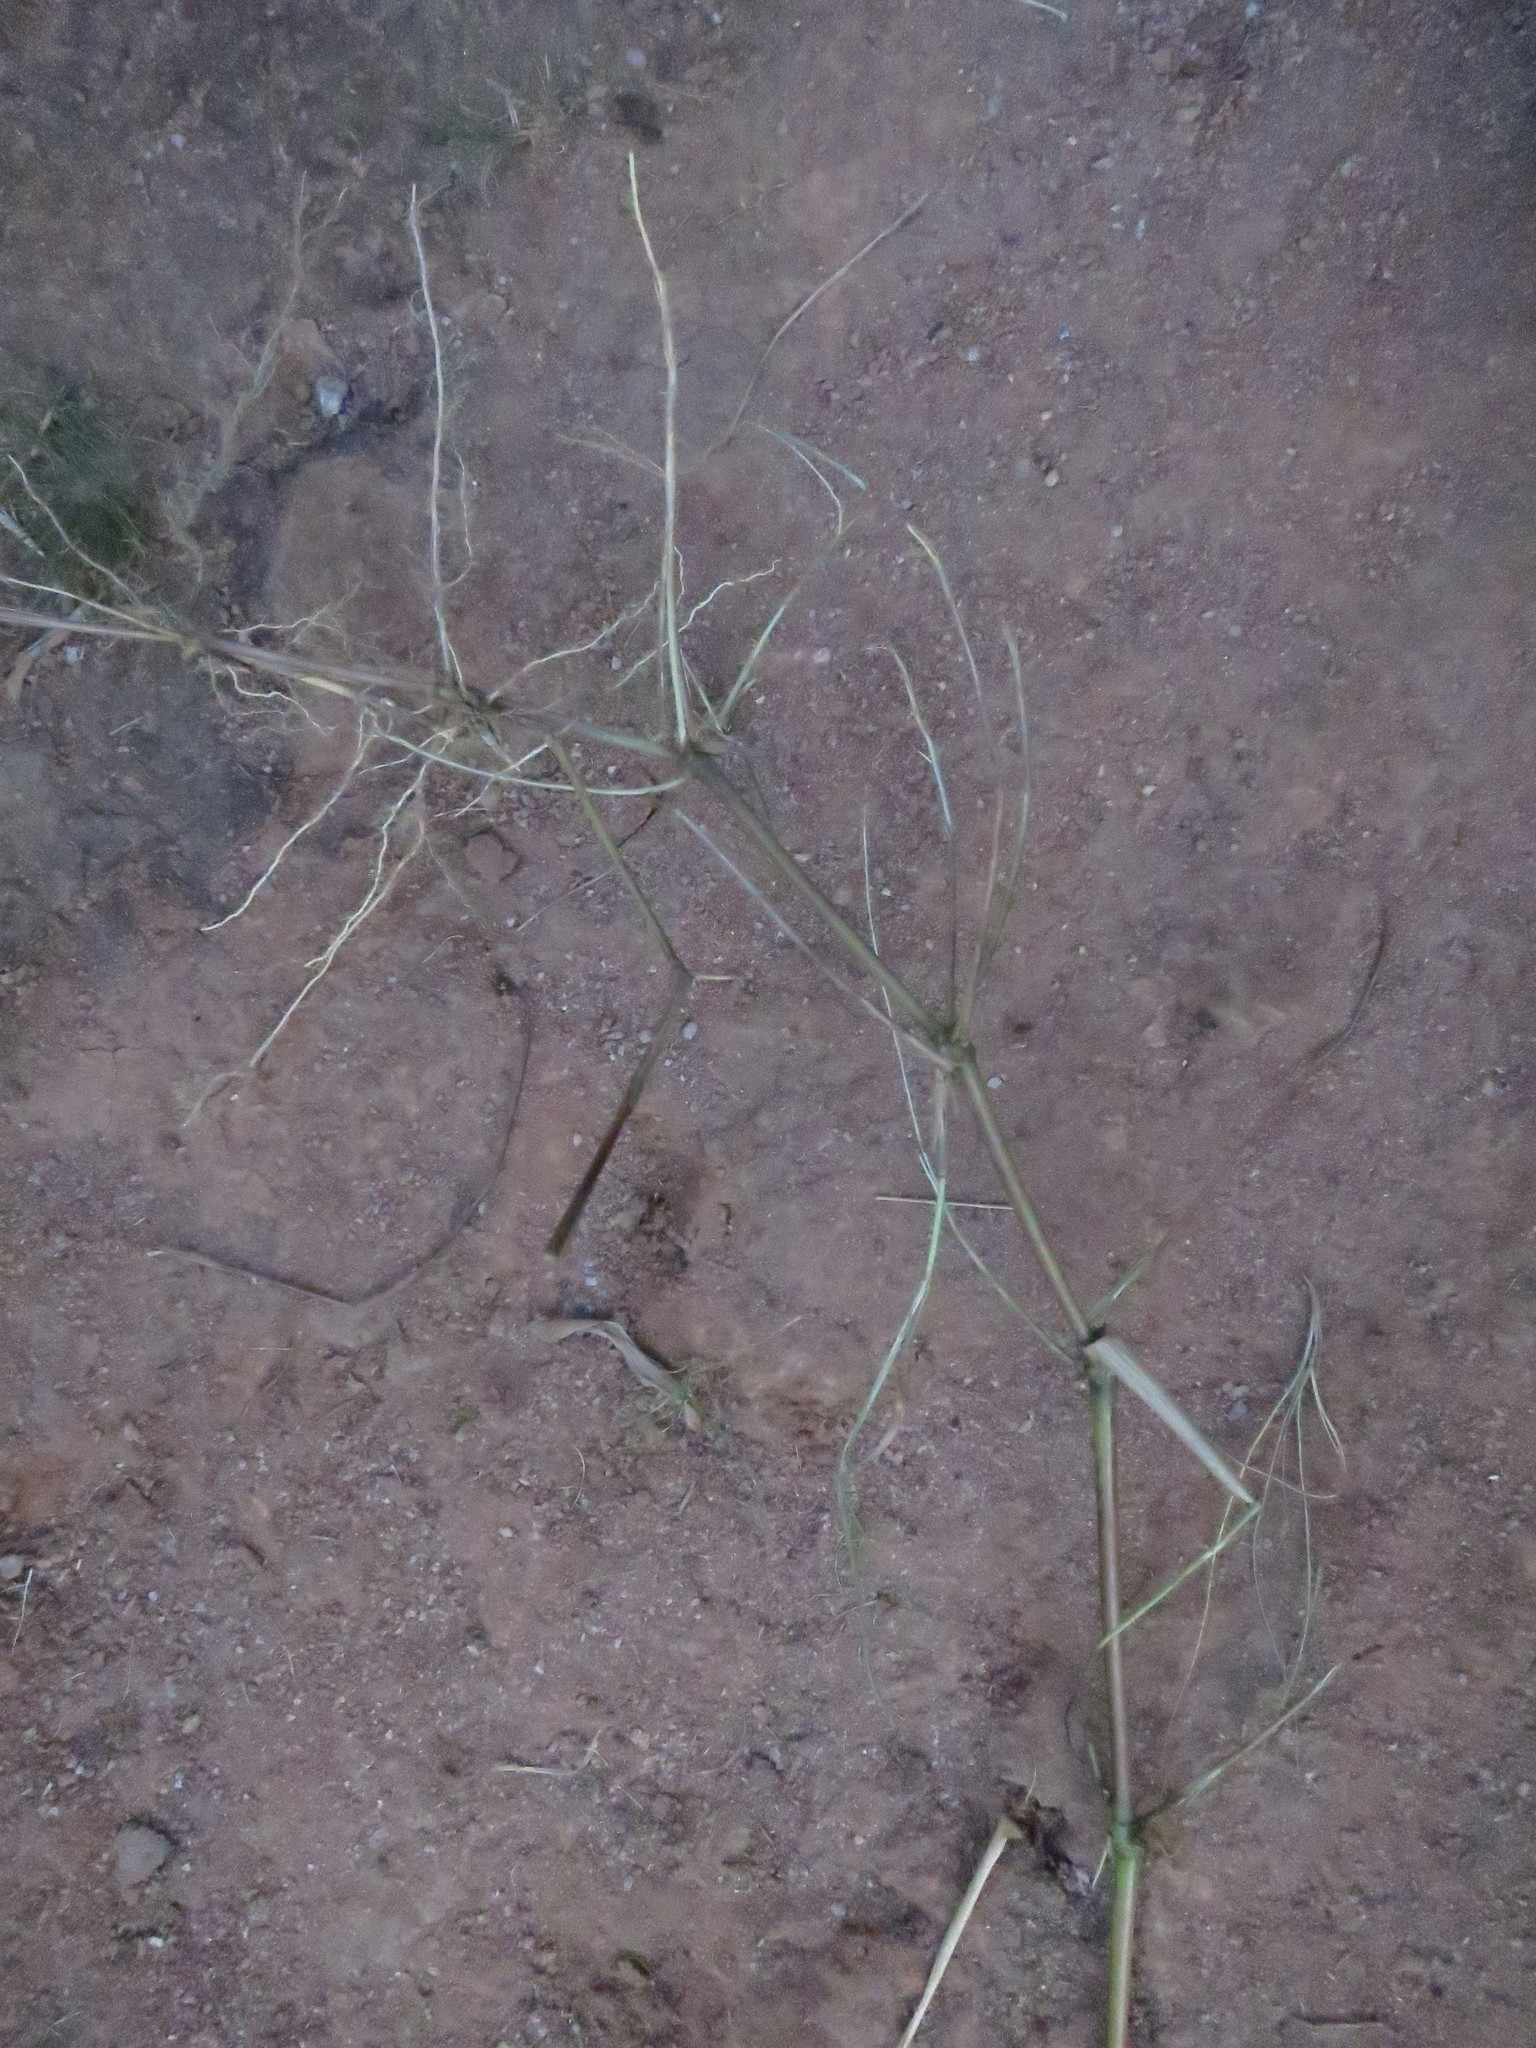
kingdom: Plantae
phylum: Tracheophyta
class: Liliopsida
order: Poales
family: Poaceae
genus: Hyparrhenia
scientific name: Hyparrhenia schimperi
